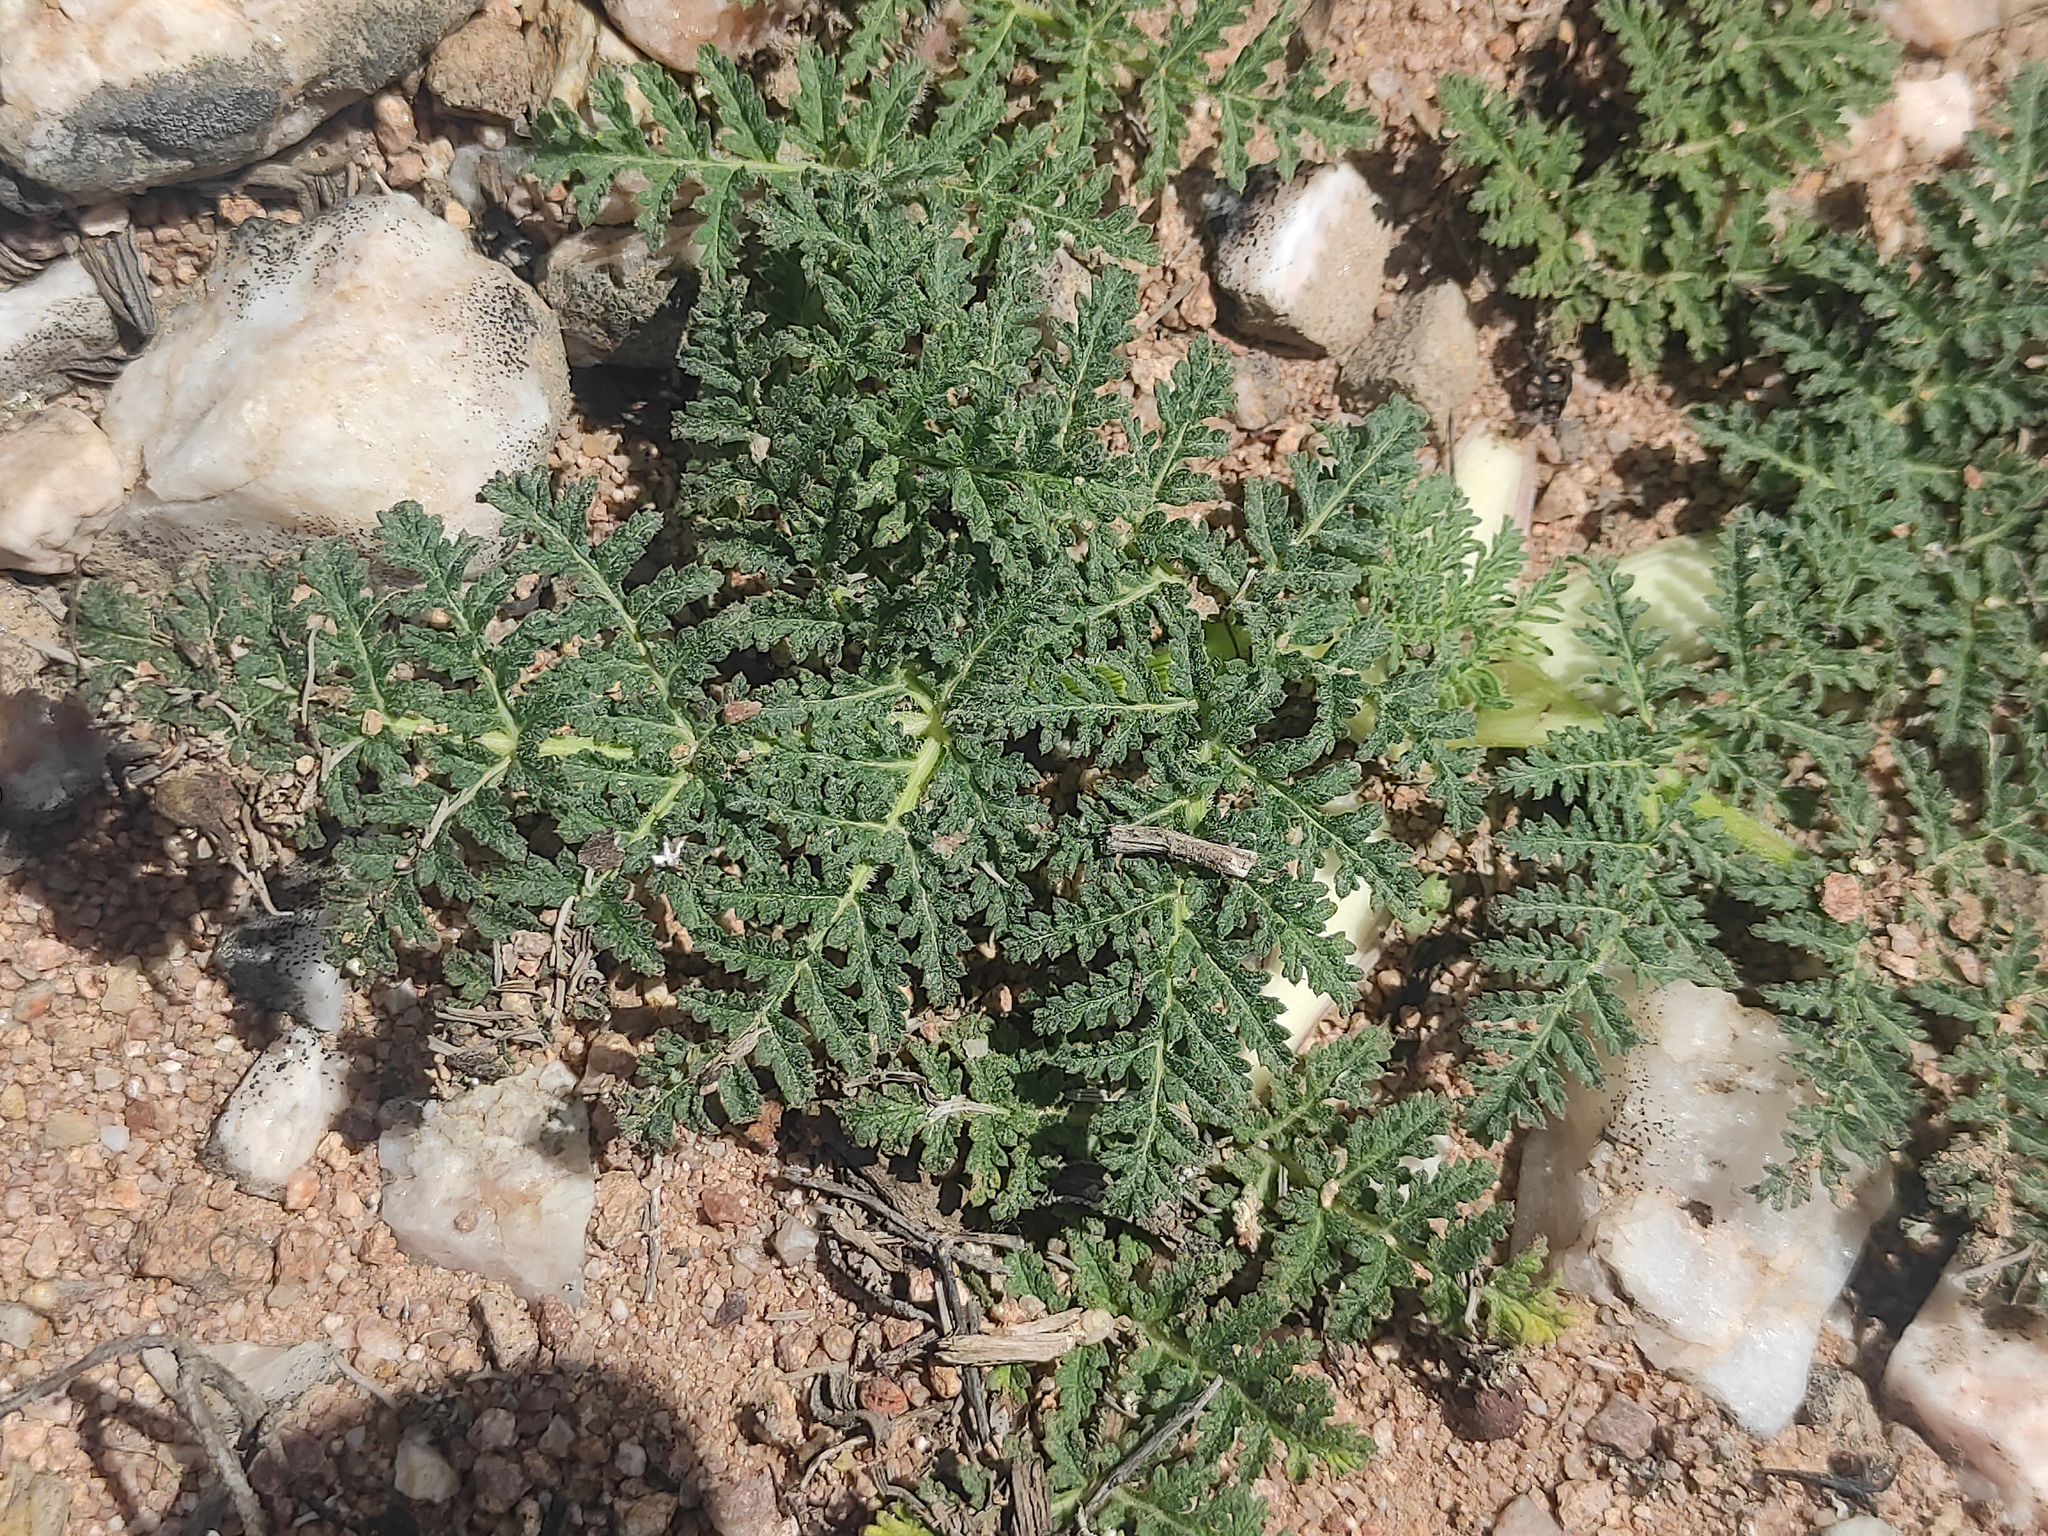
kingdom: Plantae
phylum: Tracheophyta
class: Magnoliopsida
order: Apiales
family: Apiaceae
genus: Thapsia
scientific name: Thapsia villosa
